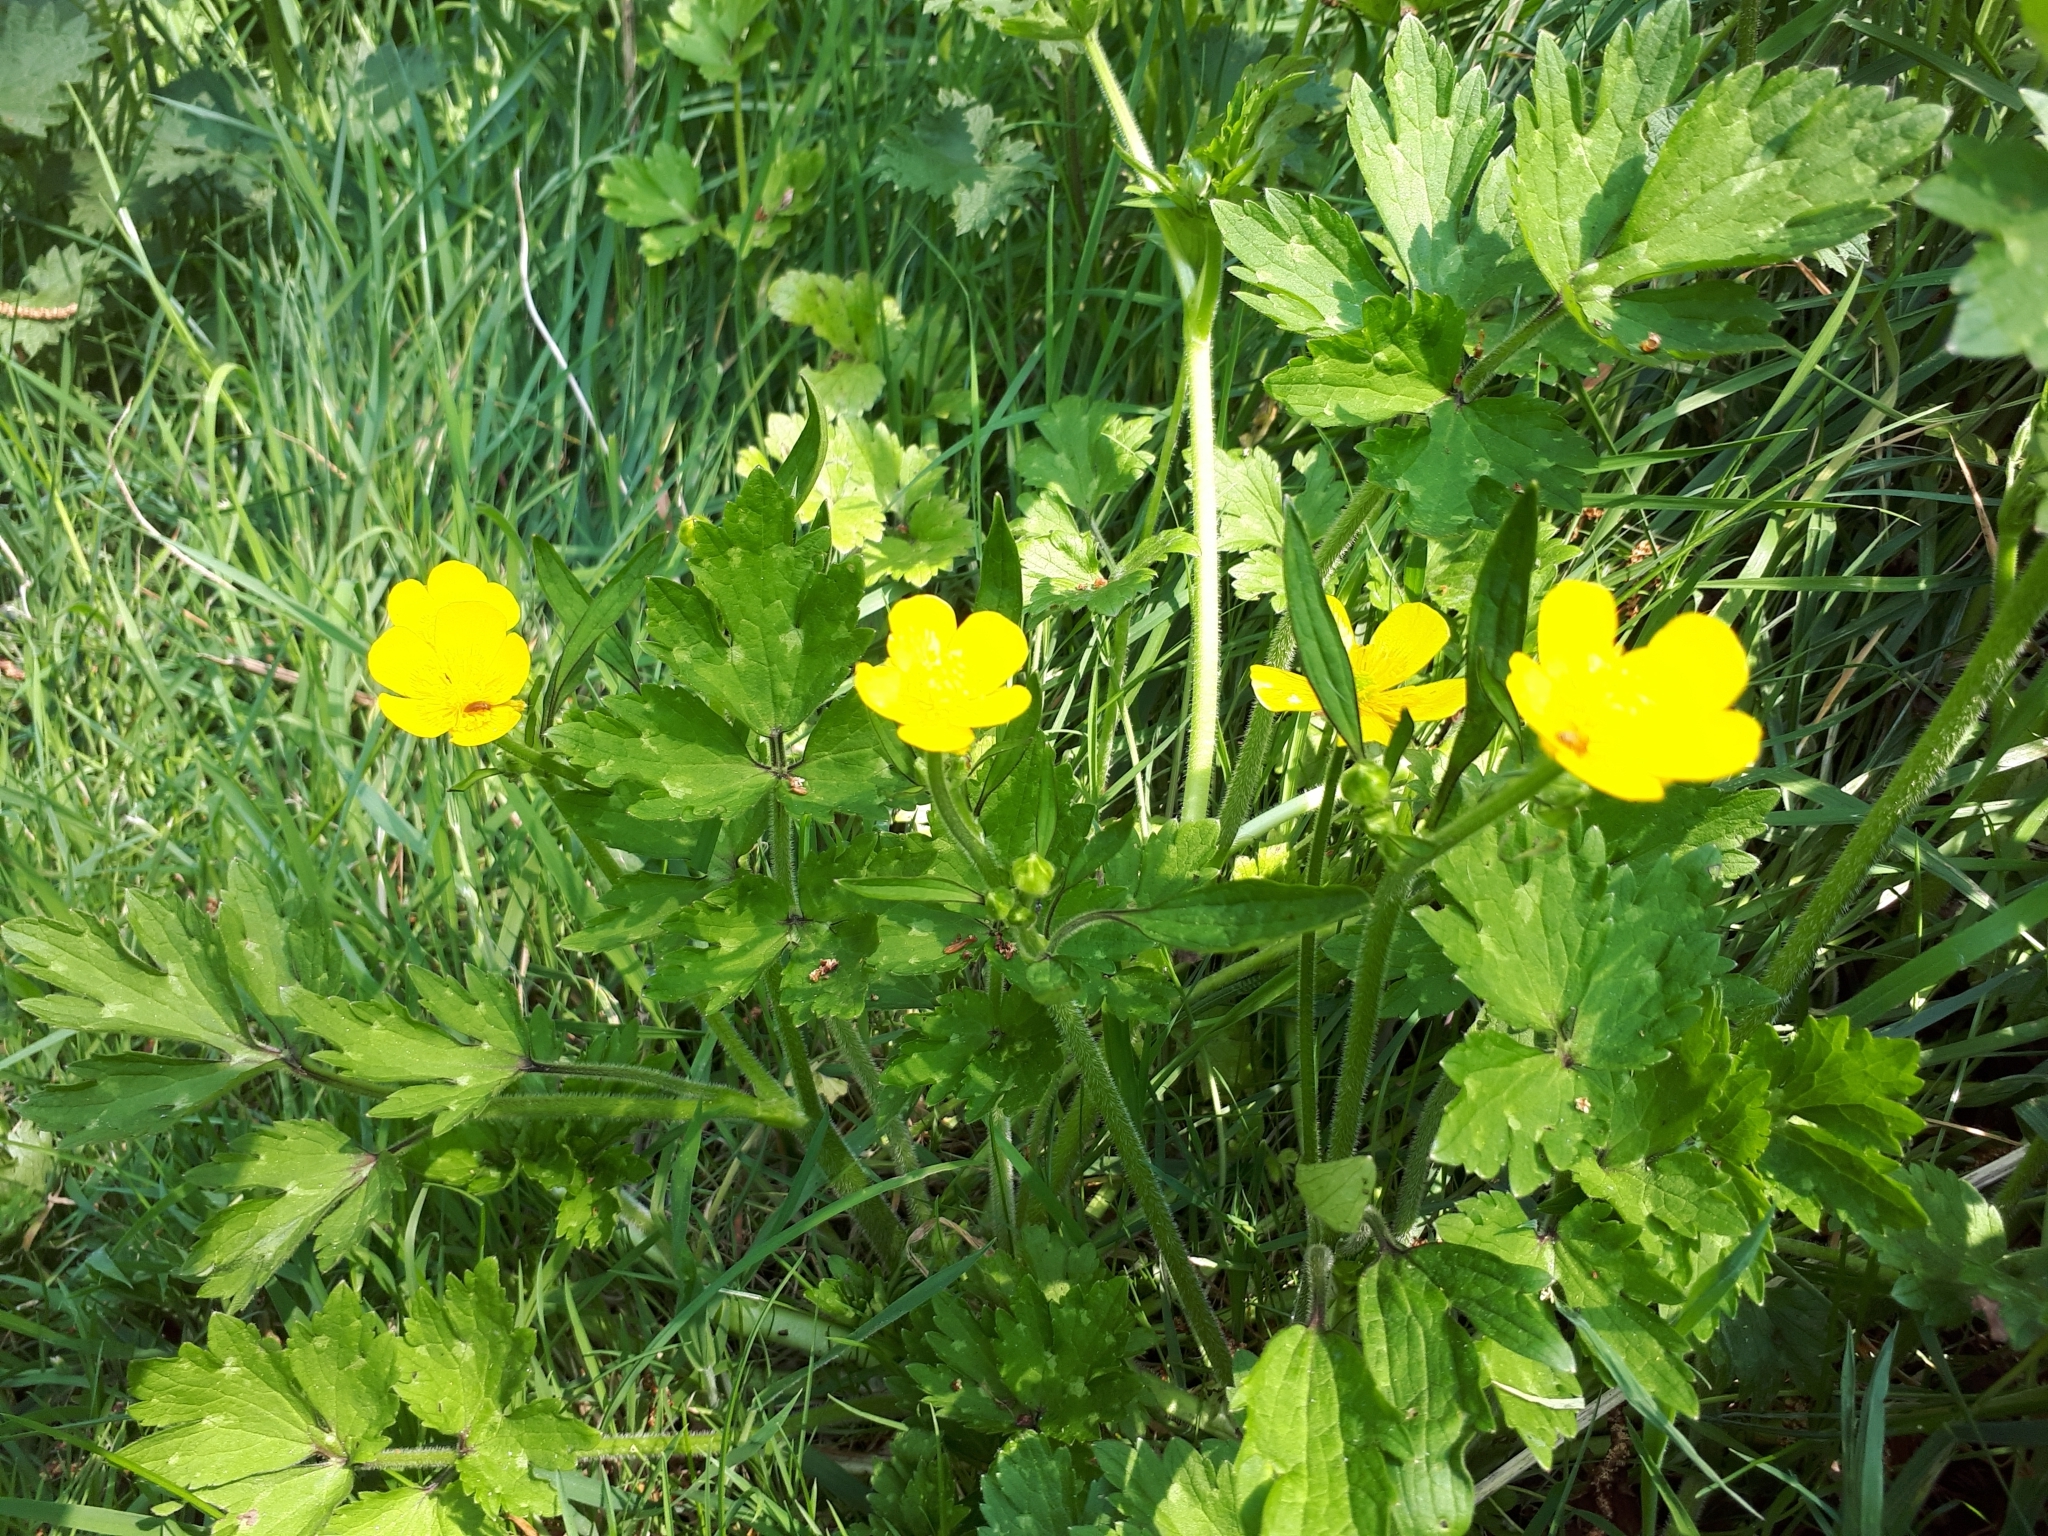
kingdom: Plantae
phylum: Tracheophyta
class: Magnoliopsida
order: Ranunculales
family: Ranunculaceae
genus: Ranunculus
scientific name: Ranunculus repens
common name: Creeping buttercup
